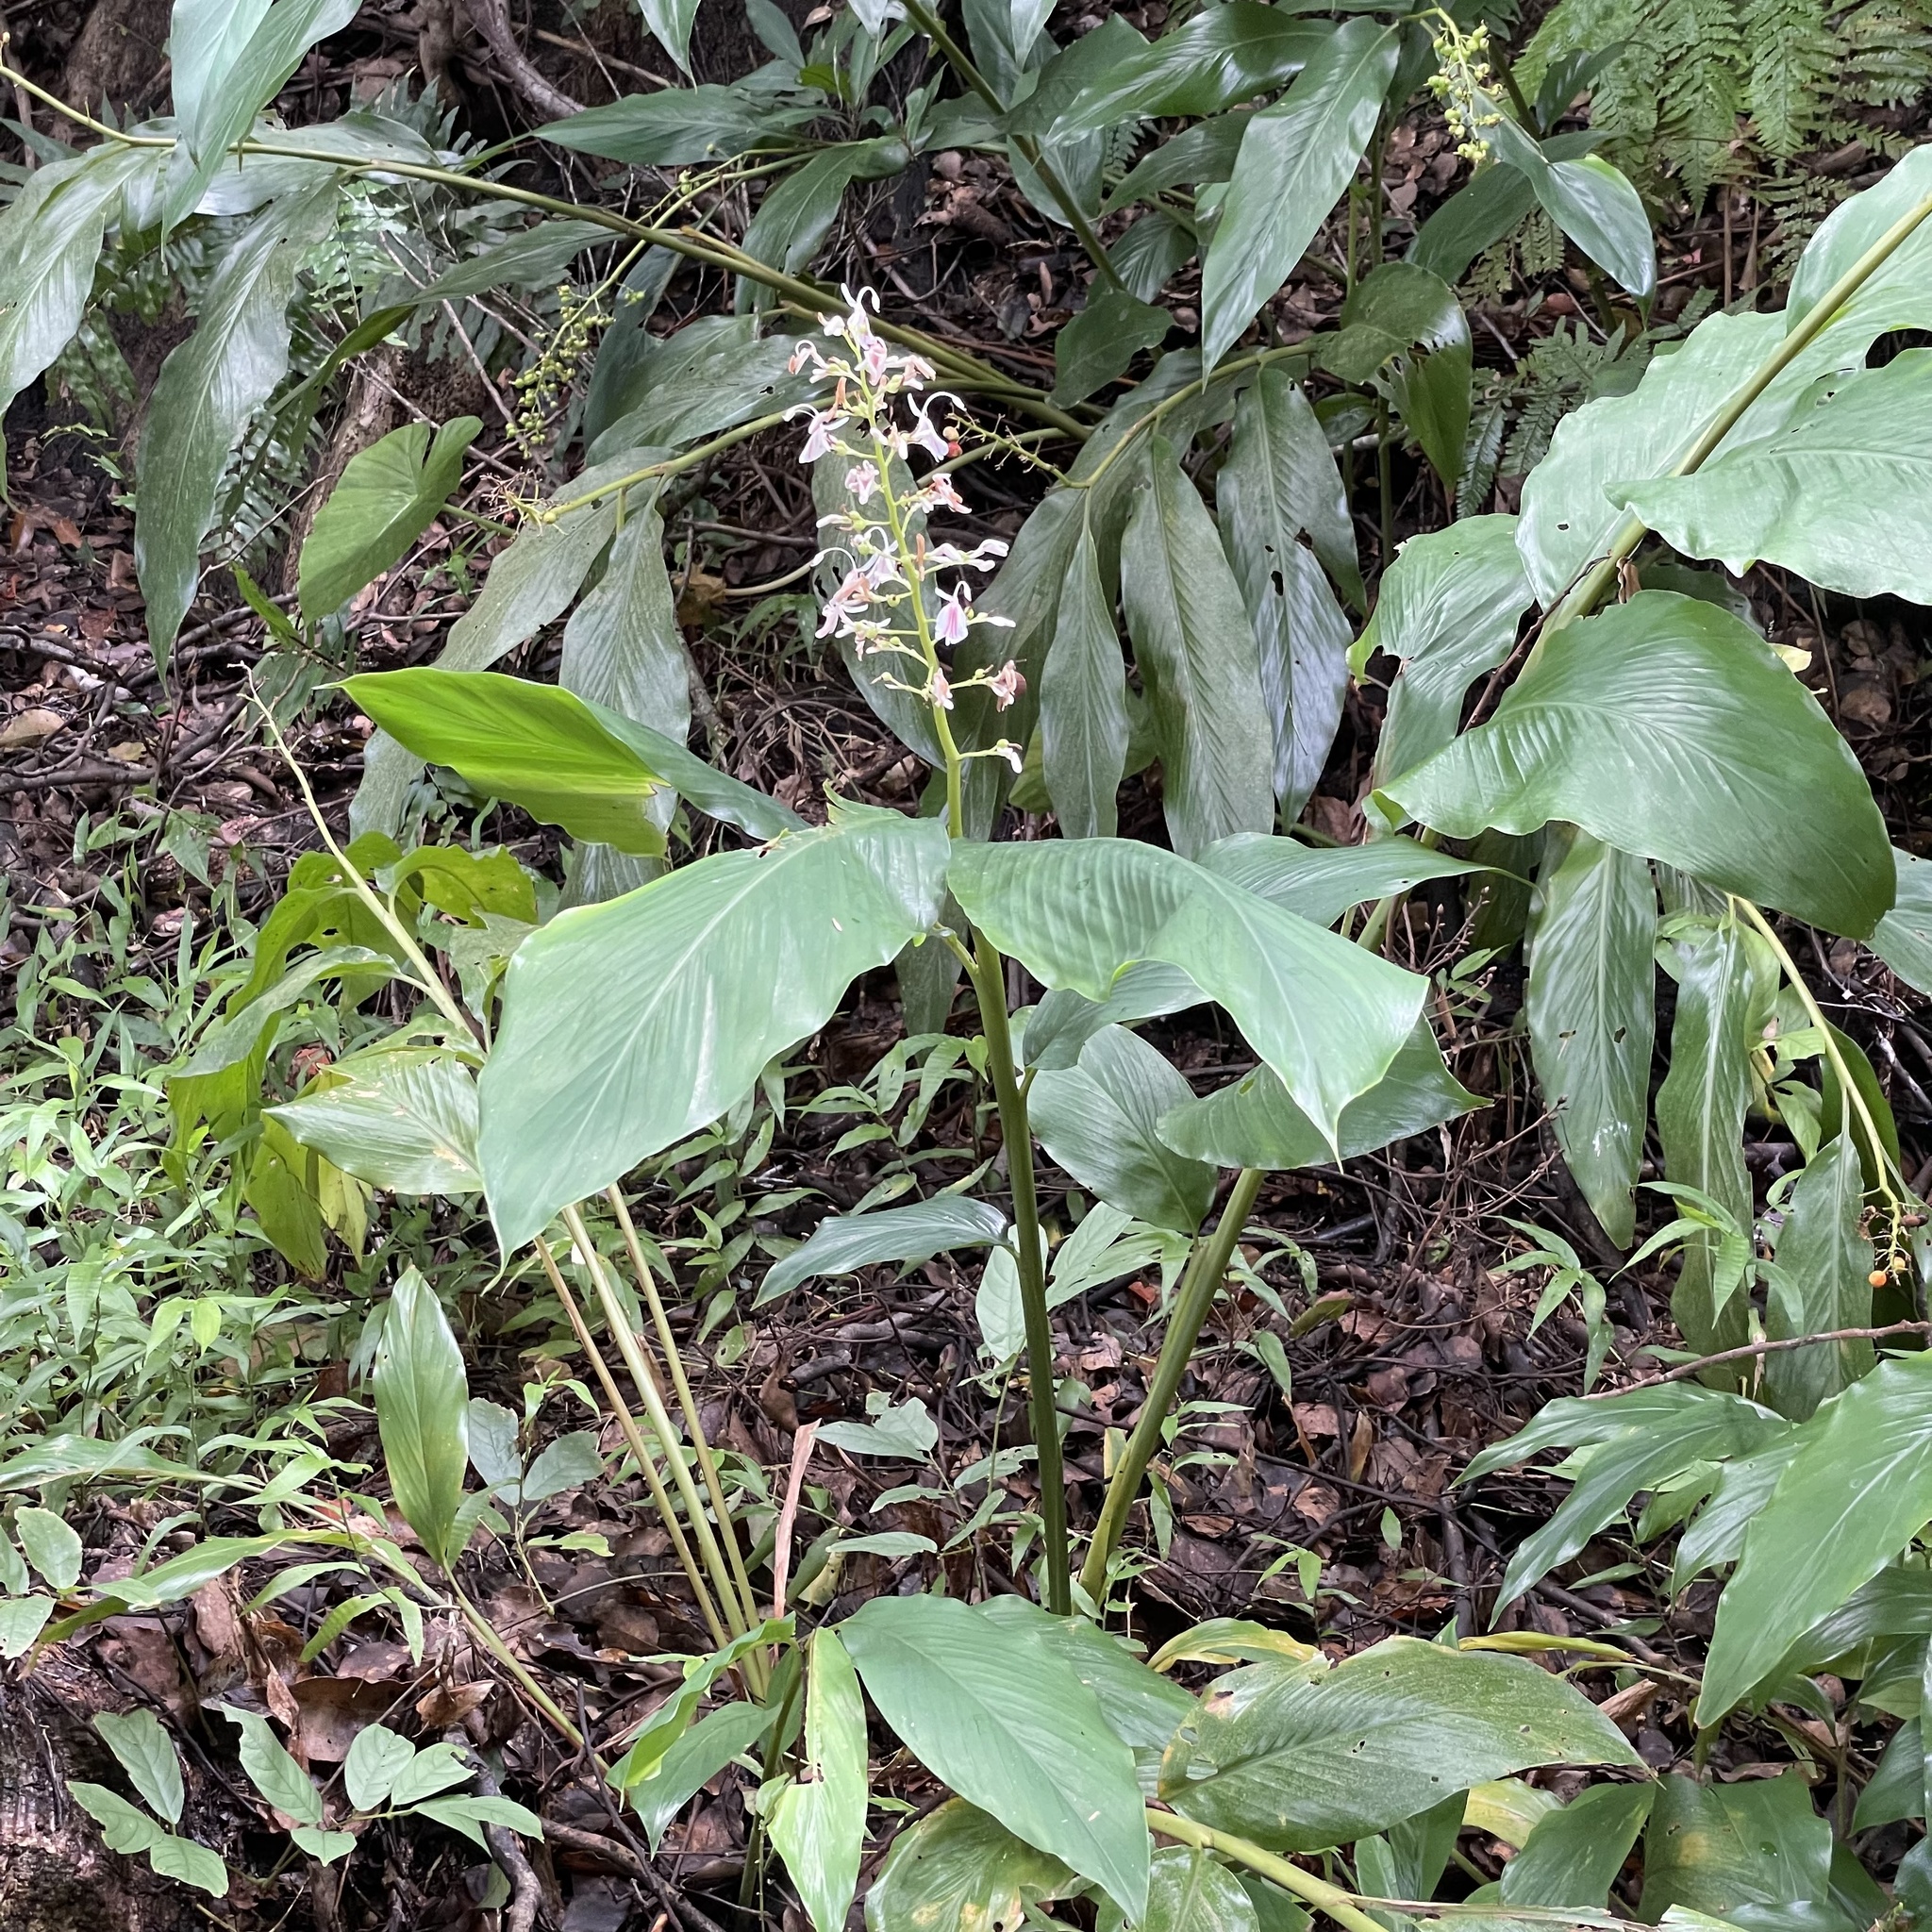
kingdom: Plantae
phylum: Tracheophyta
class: Liliopsida
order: Zingiberales
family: Zingiberaceae
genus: Alpinia
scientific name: Alpinia intermedia
